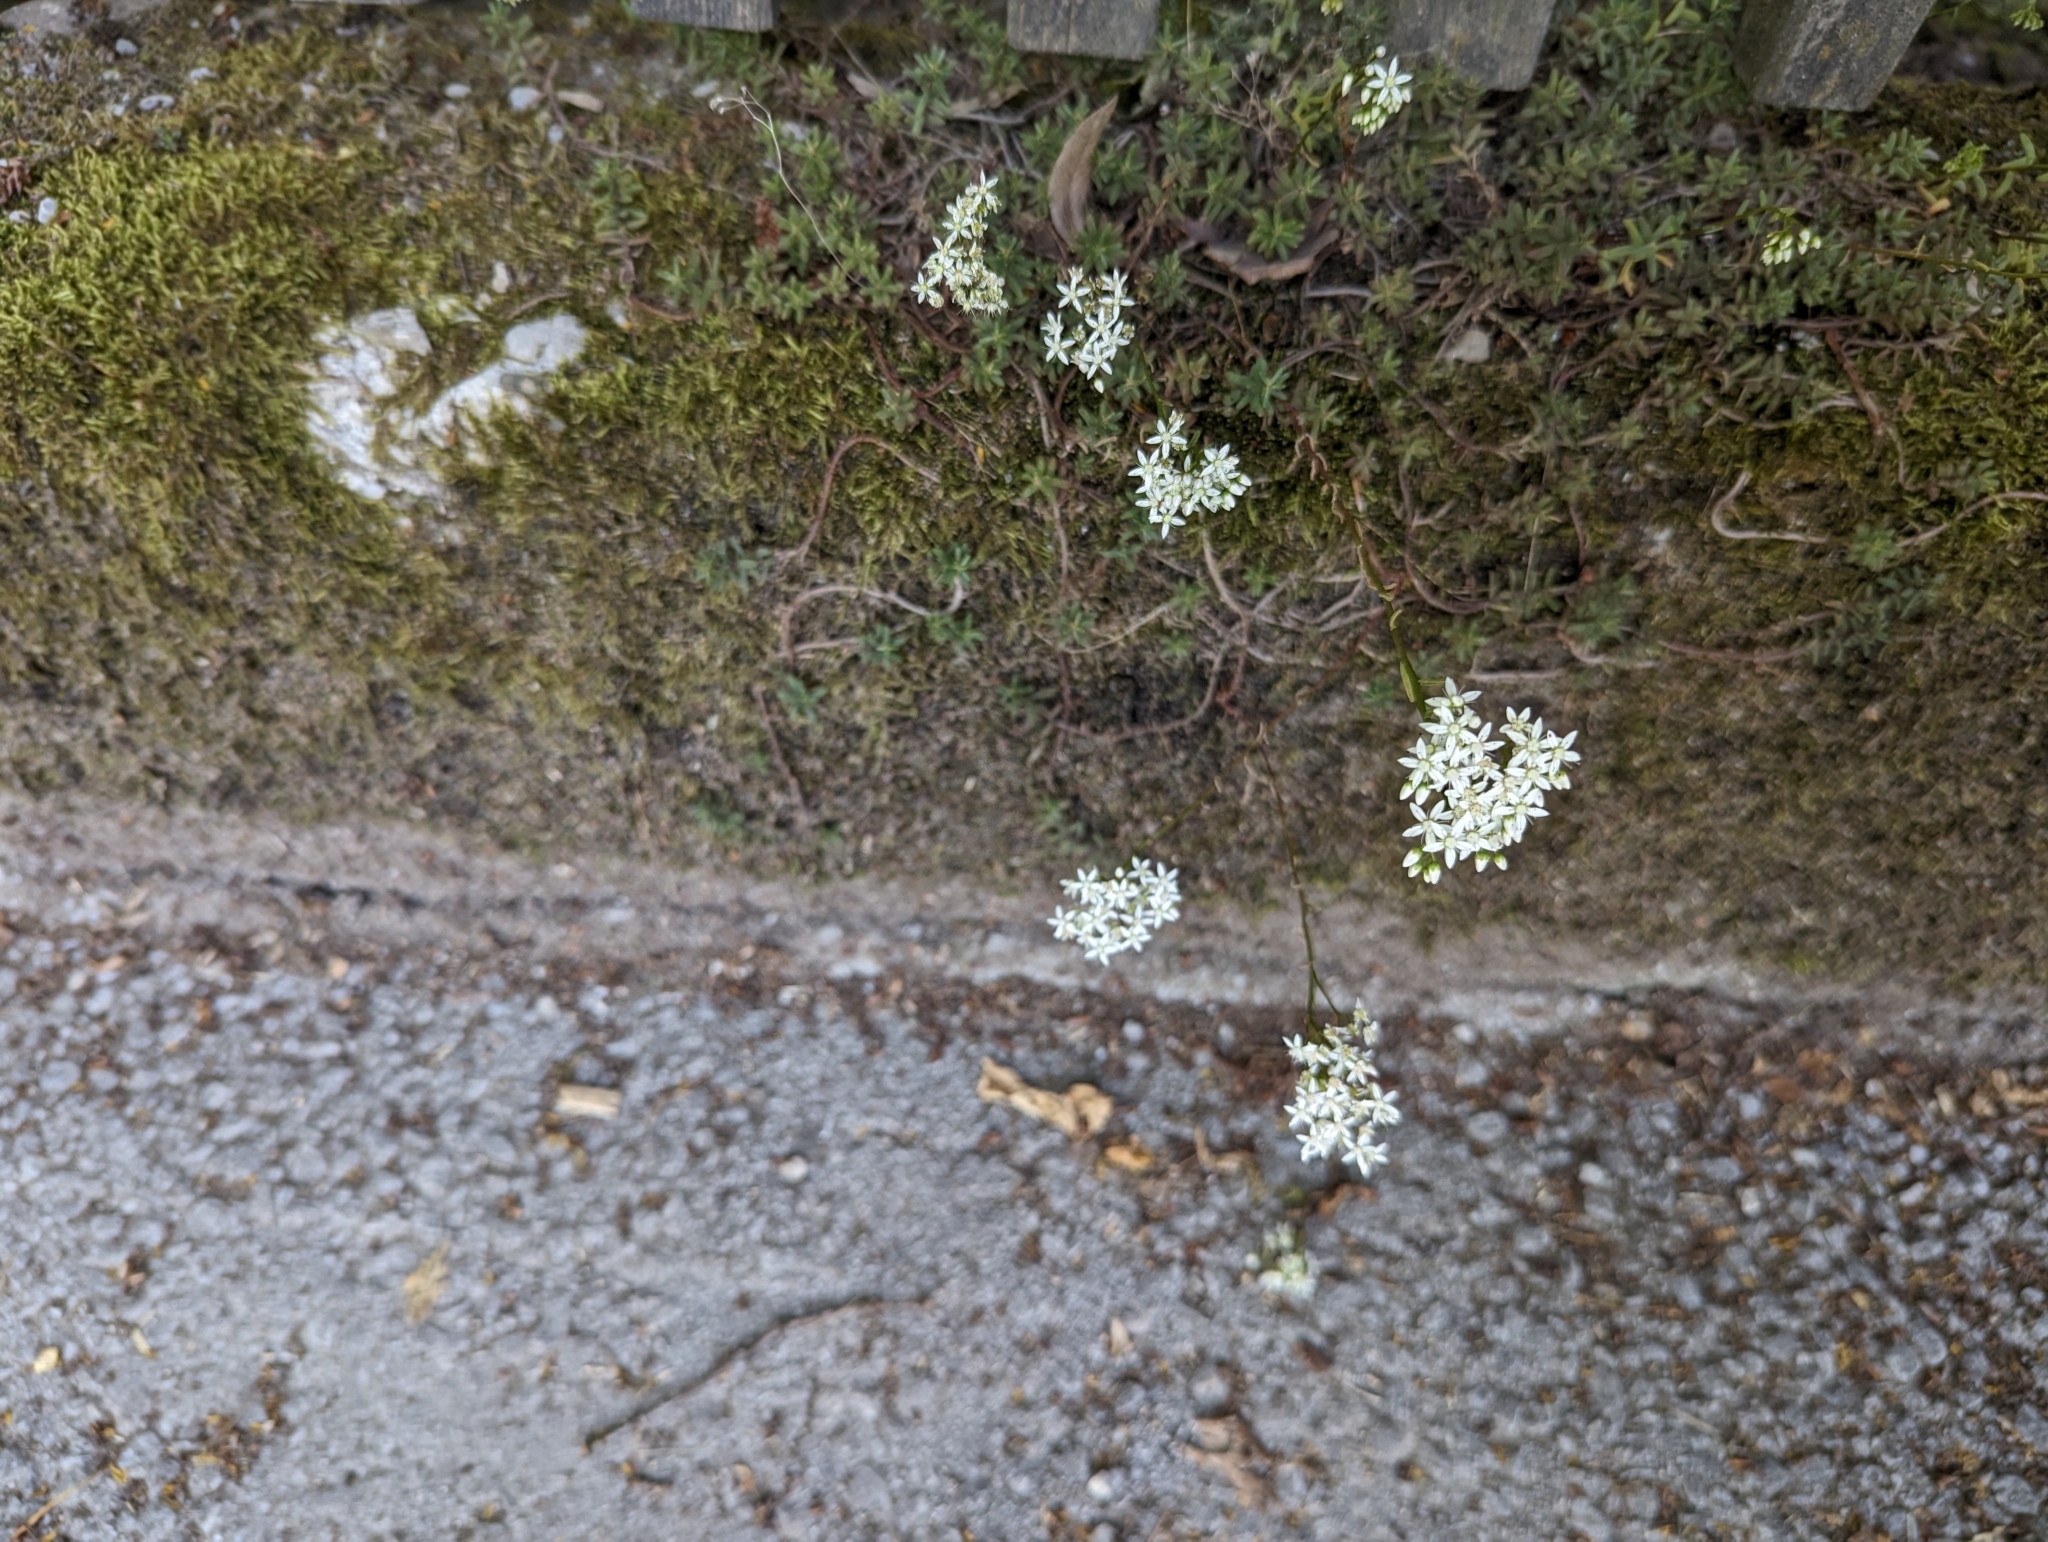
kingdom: Plantae
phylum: Tracheophyta
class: Magnoliopsida
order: Saxifragales
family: Crassulaceae
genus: Sedum
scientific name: Sedum album
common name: White stonecrop
